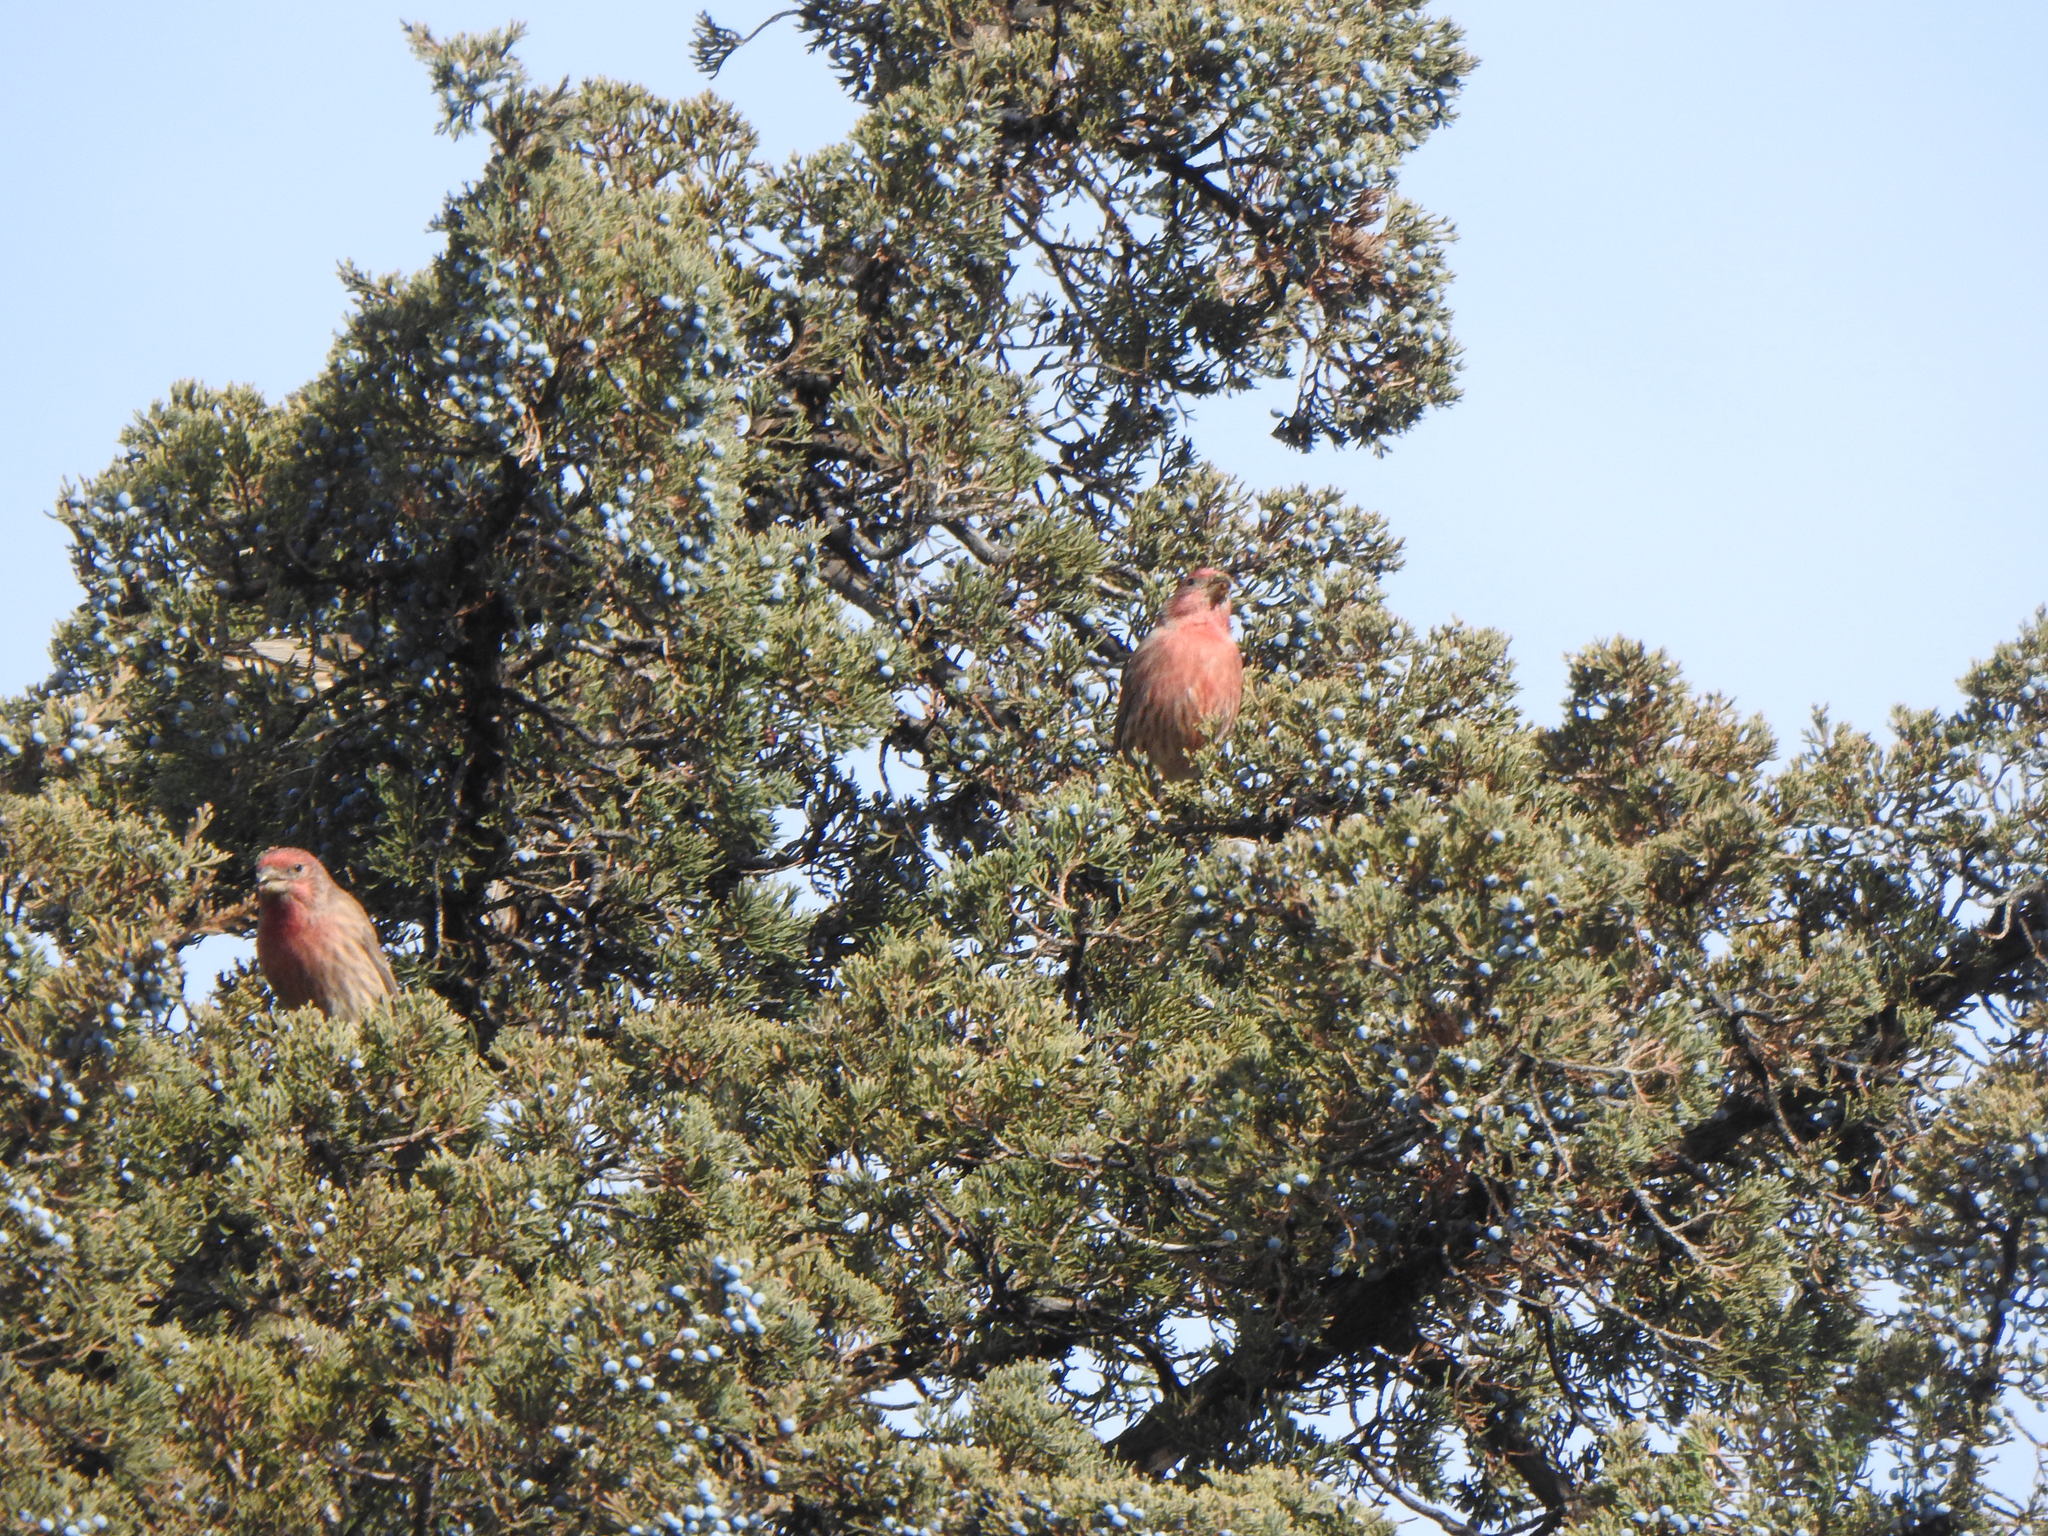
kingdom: Animalia
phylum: Chordata
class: Aves
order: Passeriformes
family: Fringillidae
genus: Haemorhous
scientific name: Haemorhous mexicanus
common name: House finch
